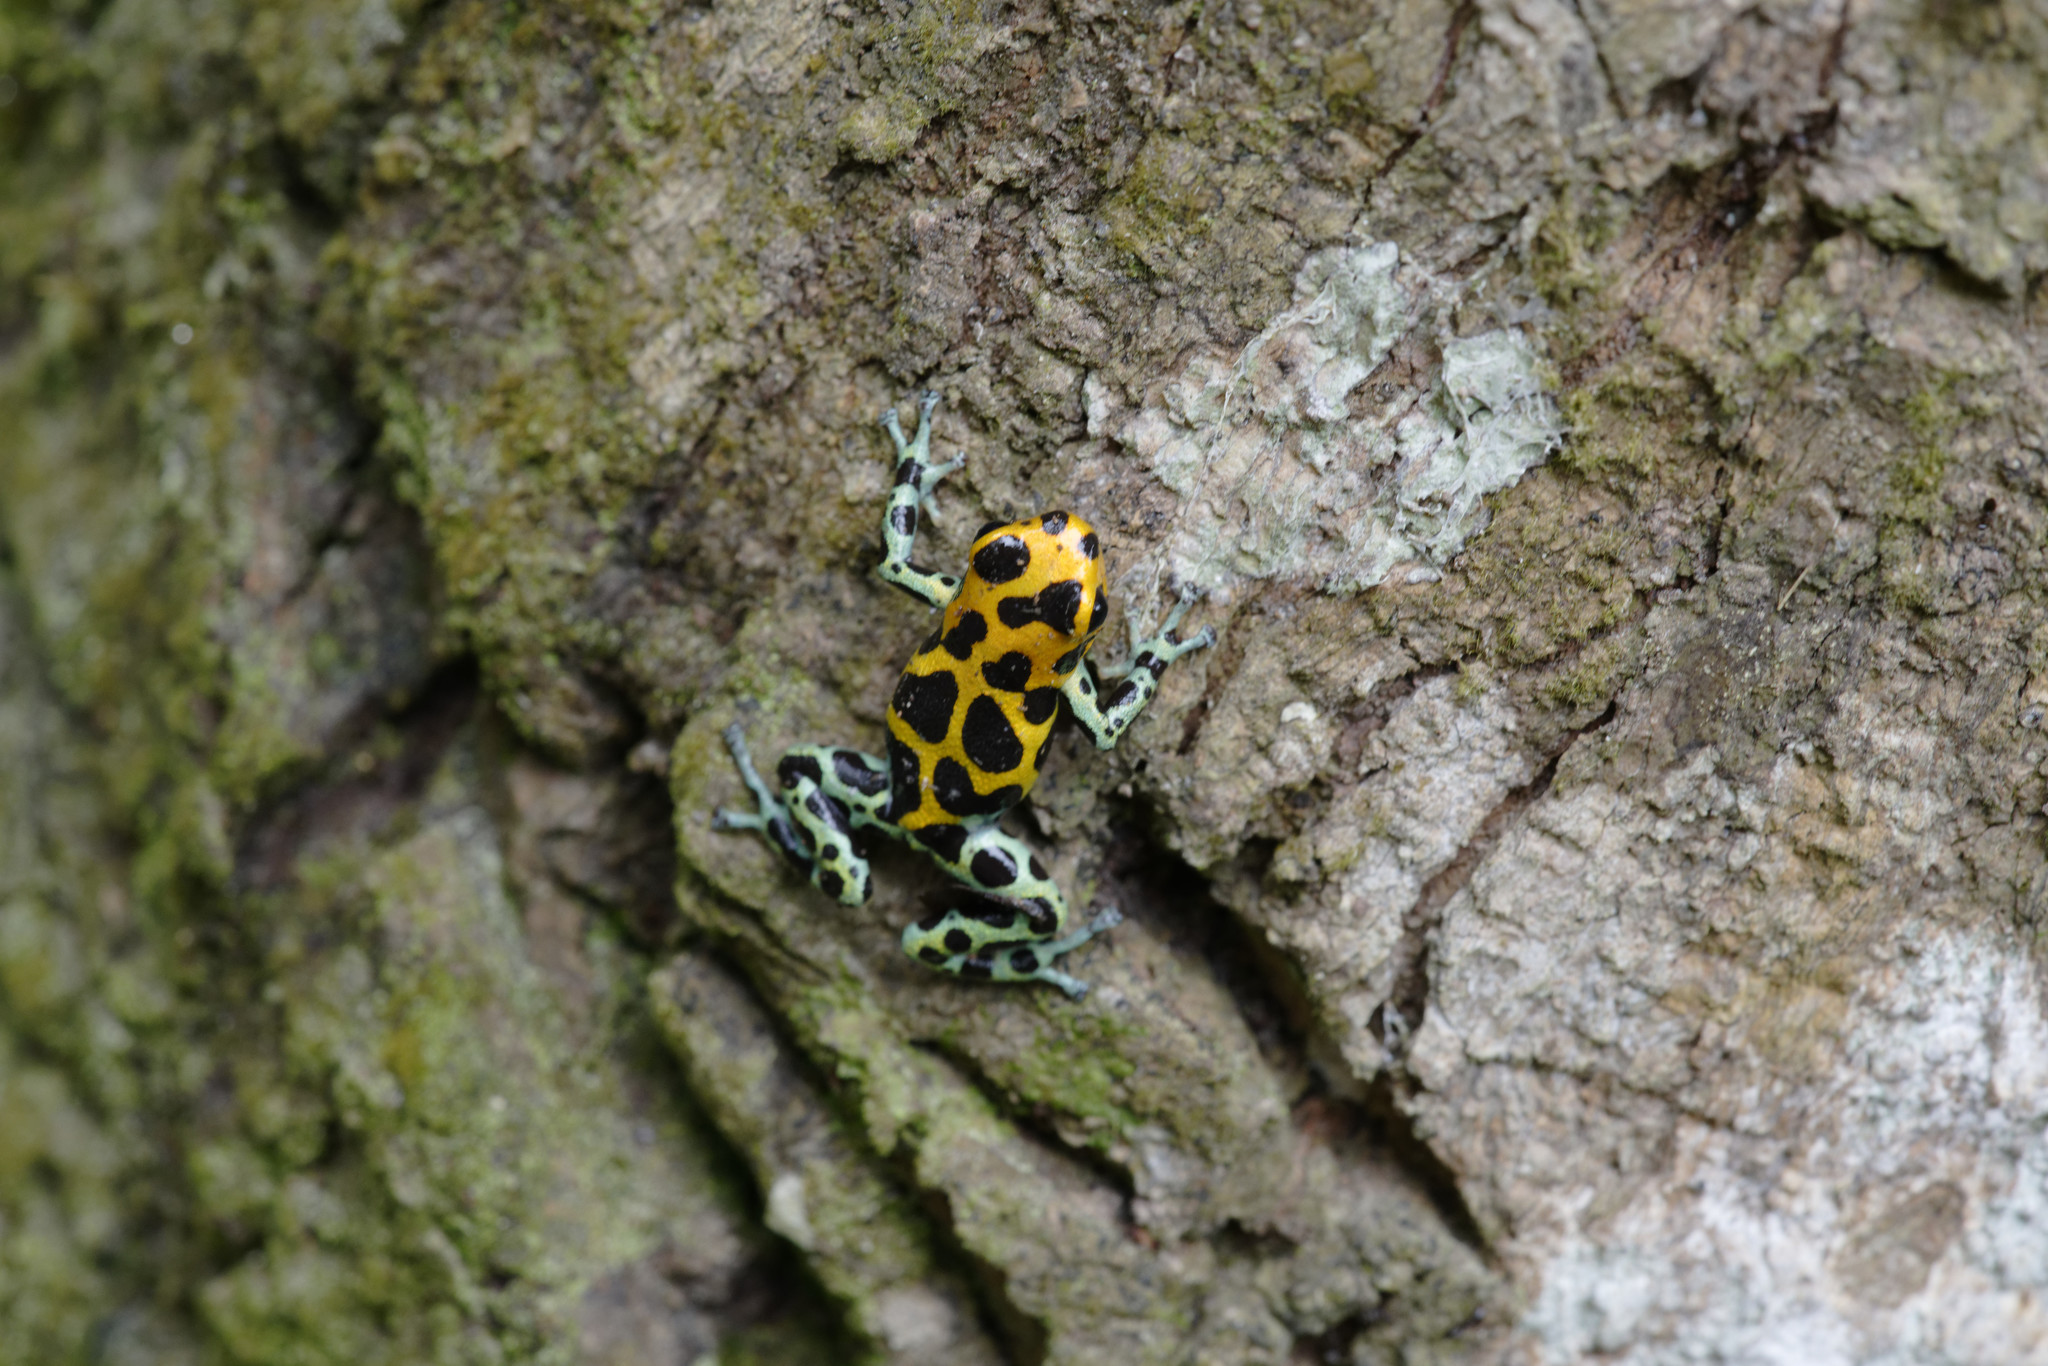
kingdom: Animalia
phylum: Chordata
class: Amphibia
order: Anura
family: Dendrobatidae
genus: Ranitomeya
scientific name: Ranitomeya imitator
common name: Mimic poison frog
